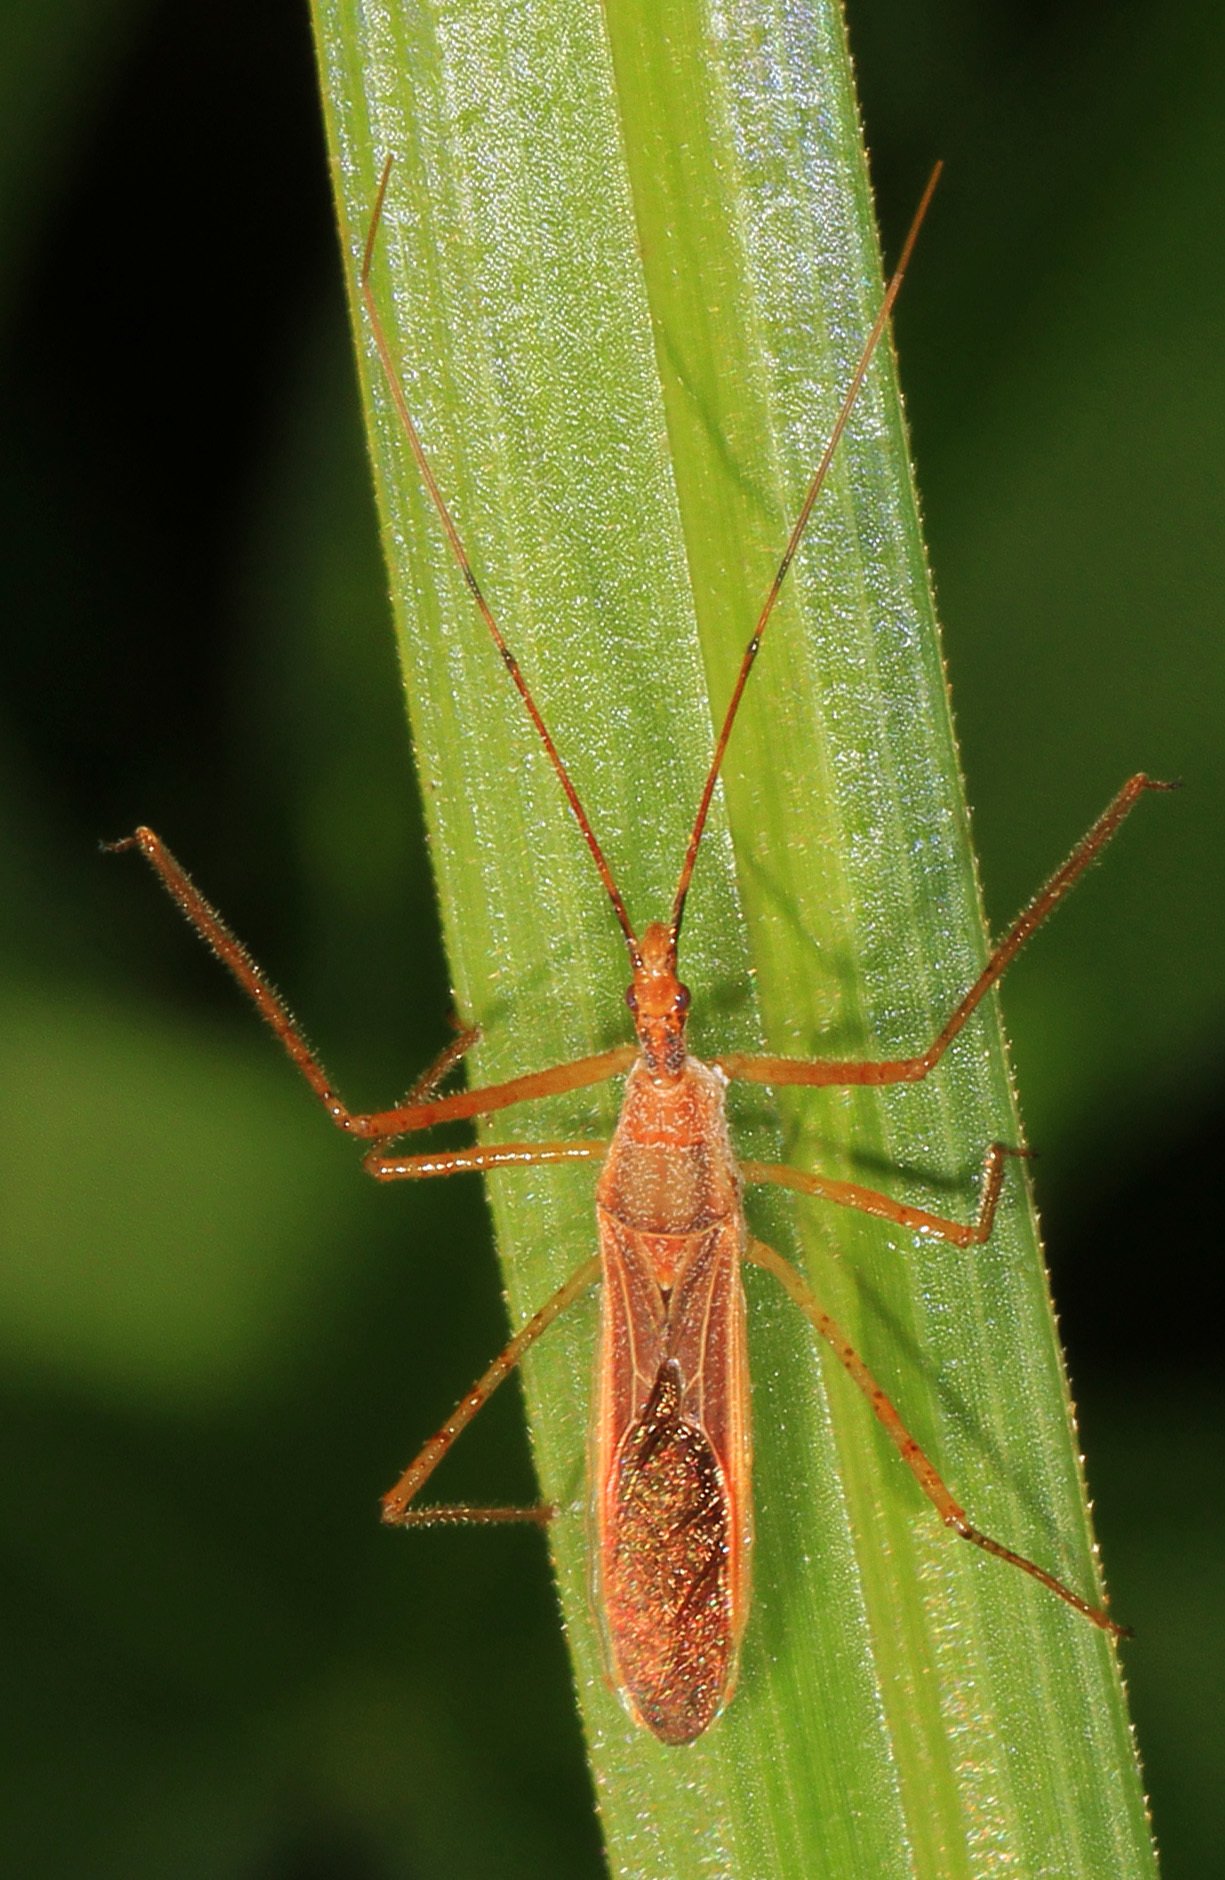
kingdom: Animalia
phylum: Arthropoda
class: Insecta
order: Hemiptera
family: Reduviidae
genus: Zelus
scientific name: Zelus cervicalis
